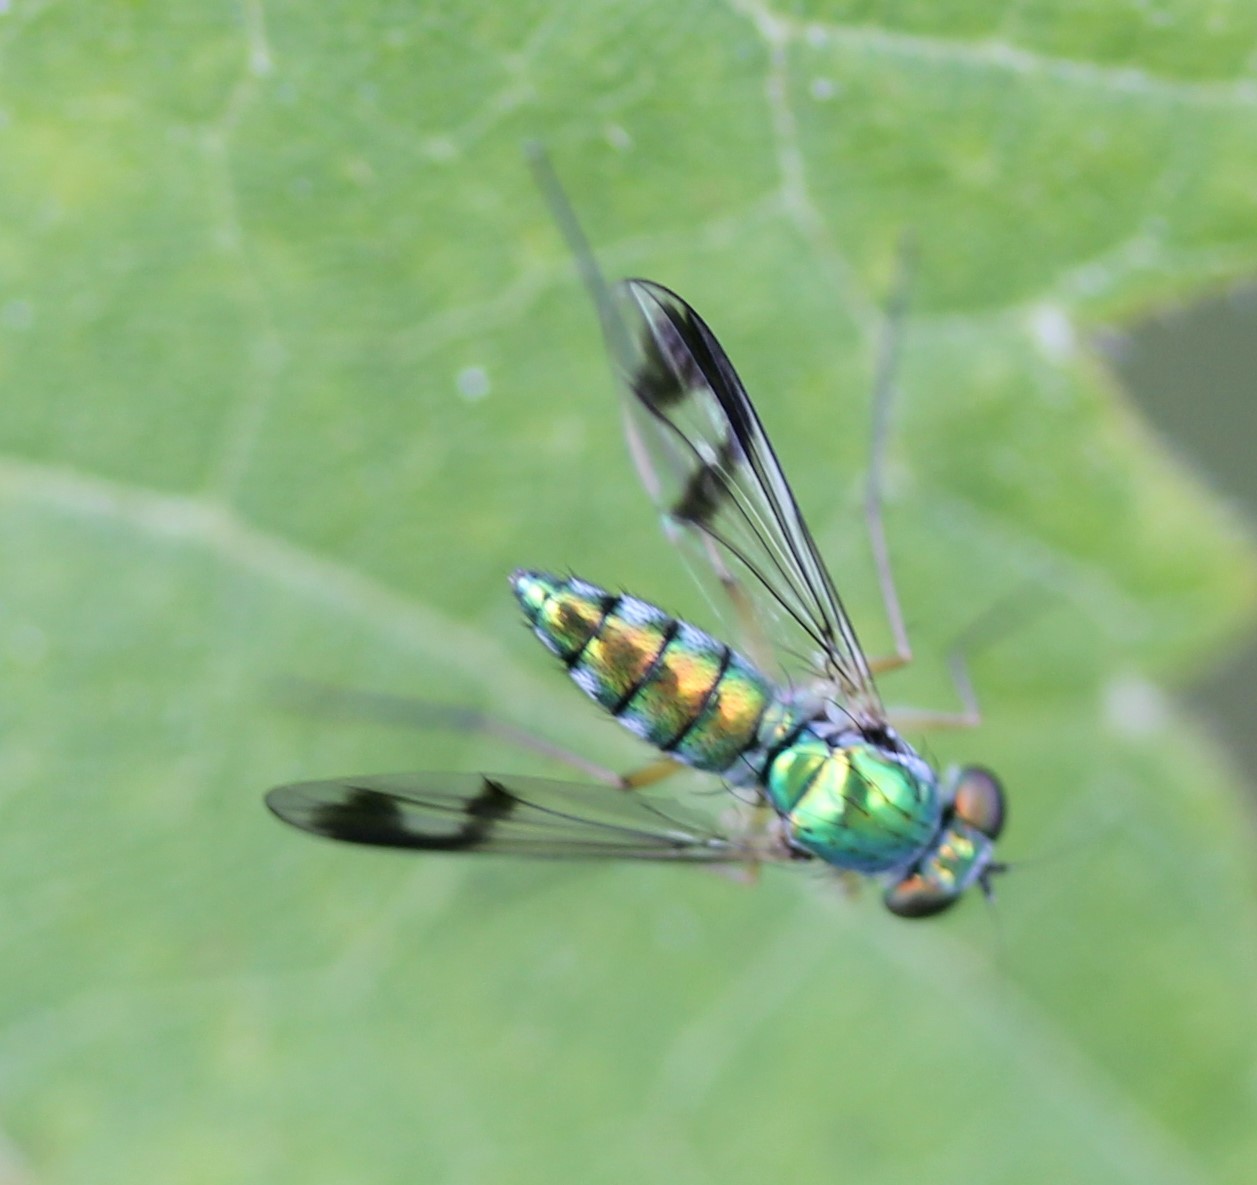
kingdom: Animalia
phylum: Arthropoda
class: Insecta
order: Diptera
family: Dolichopodidae
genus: Condylostylus
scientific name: Condylostylus
